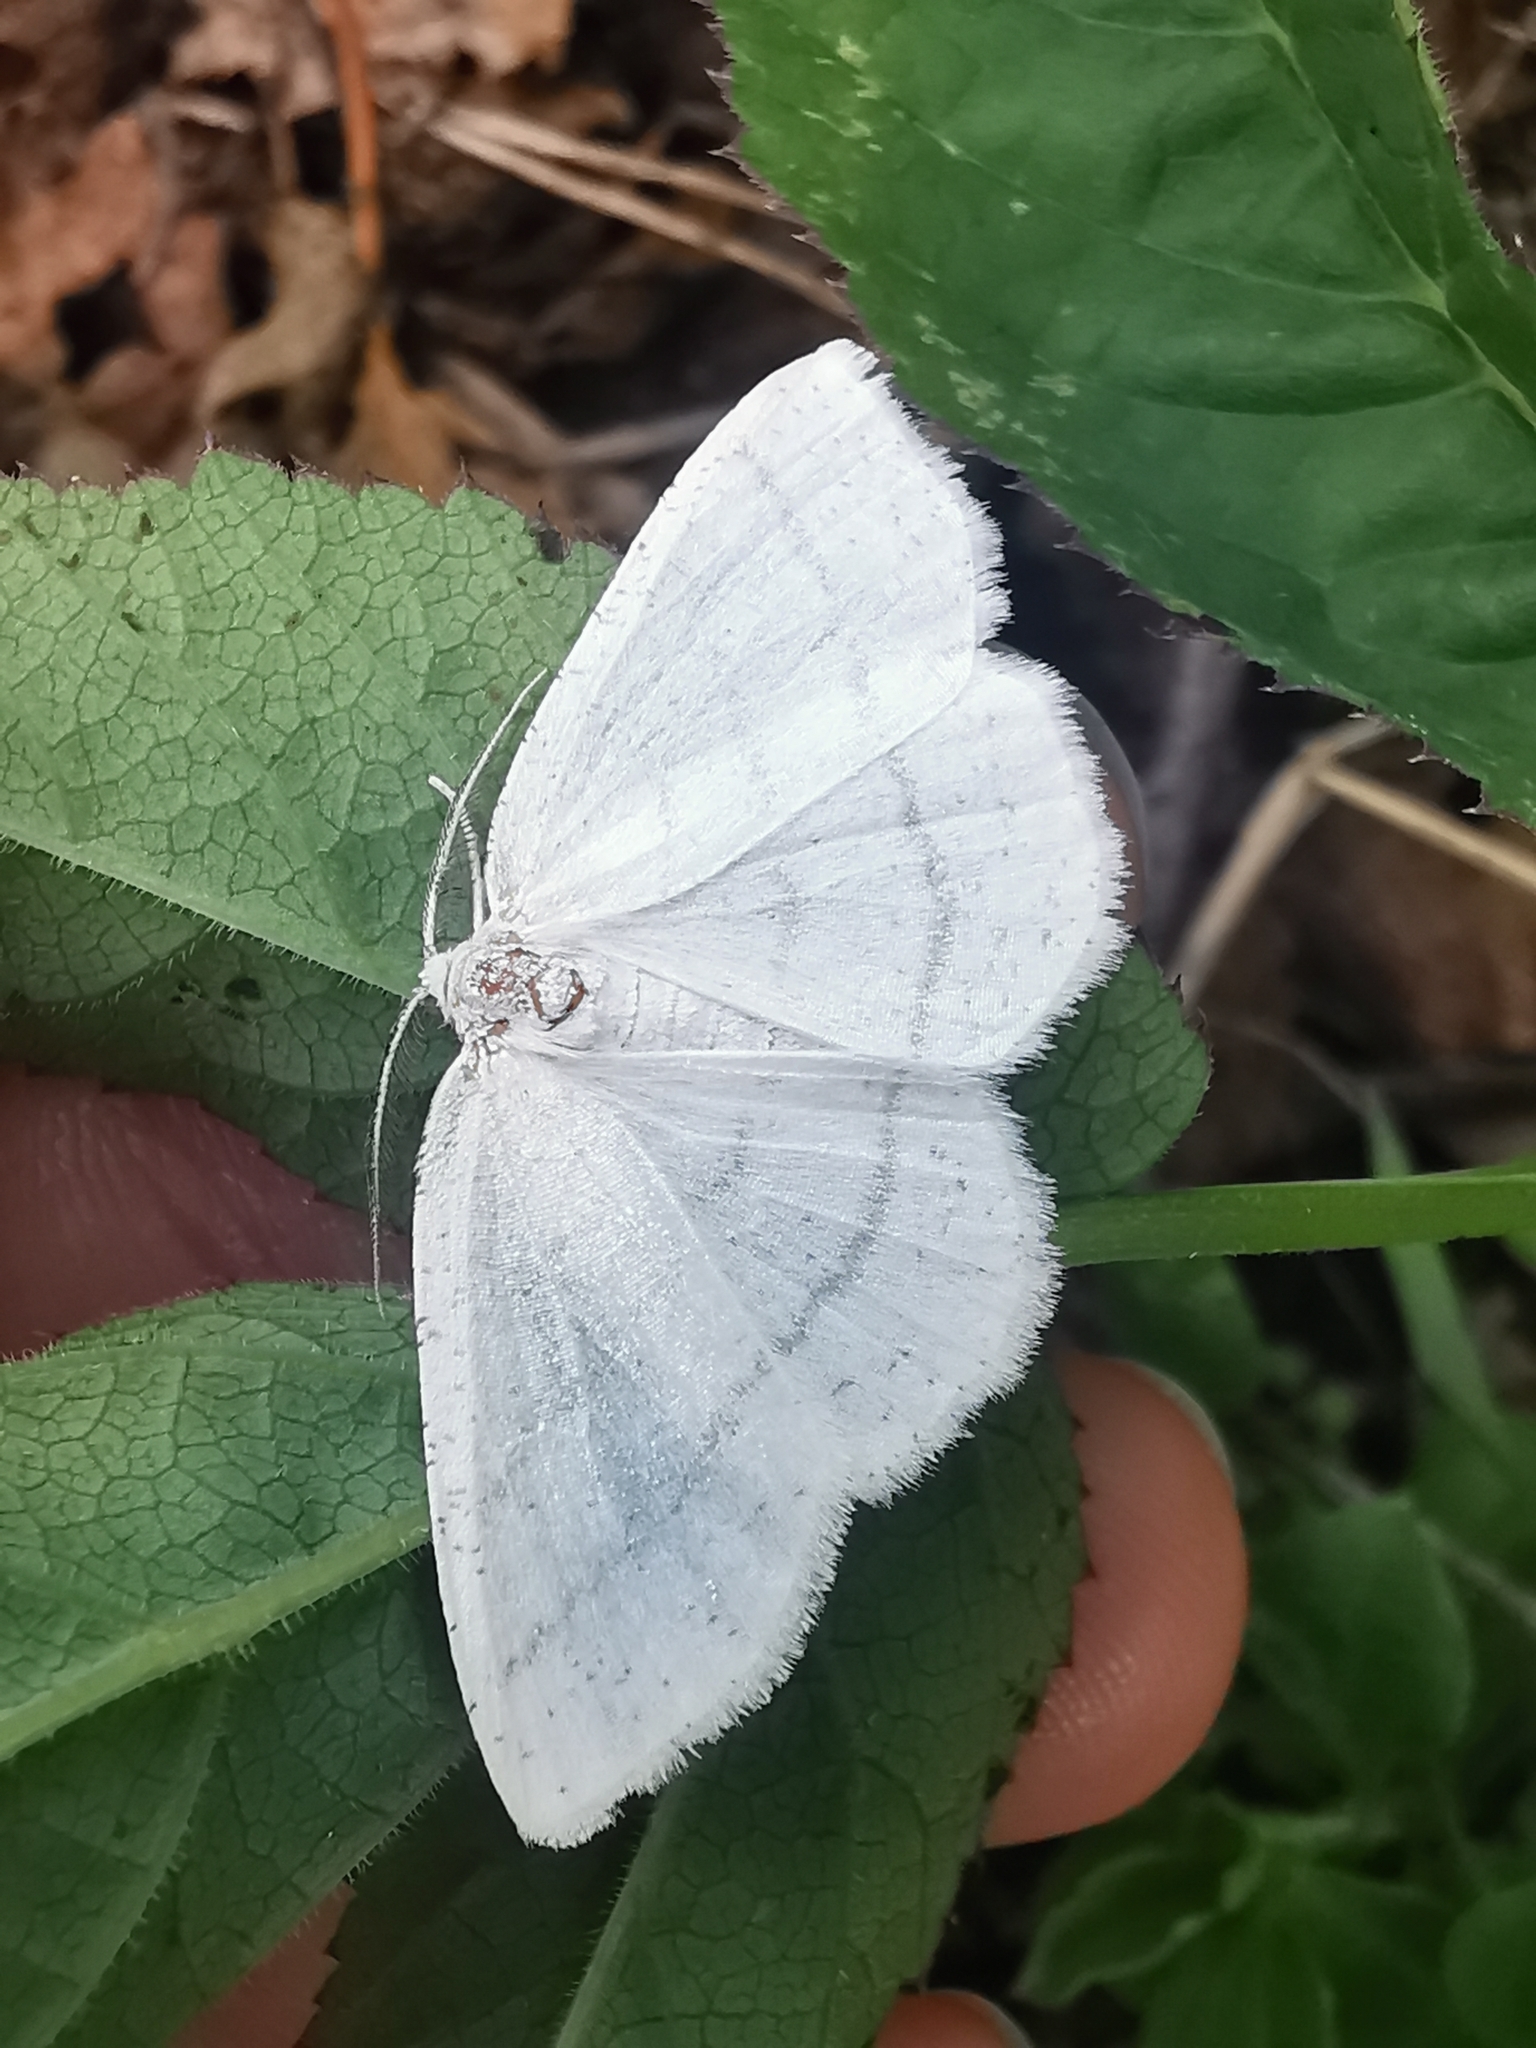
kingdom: Animalia
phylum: Arthropoda
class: Insecta
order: Lepidoptera
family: Geometridae
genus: Cabera
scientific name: Cabera pusaria
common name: Common white wave
